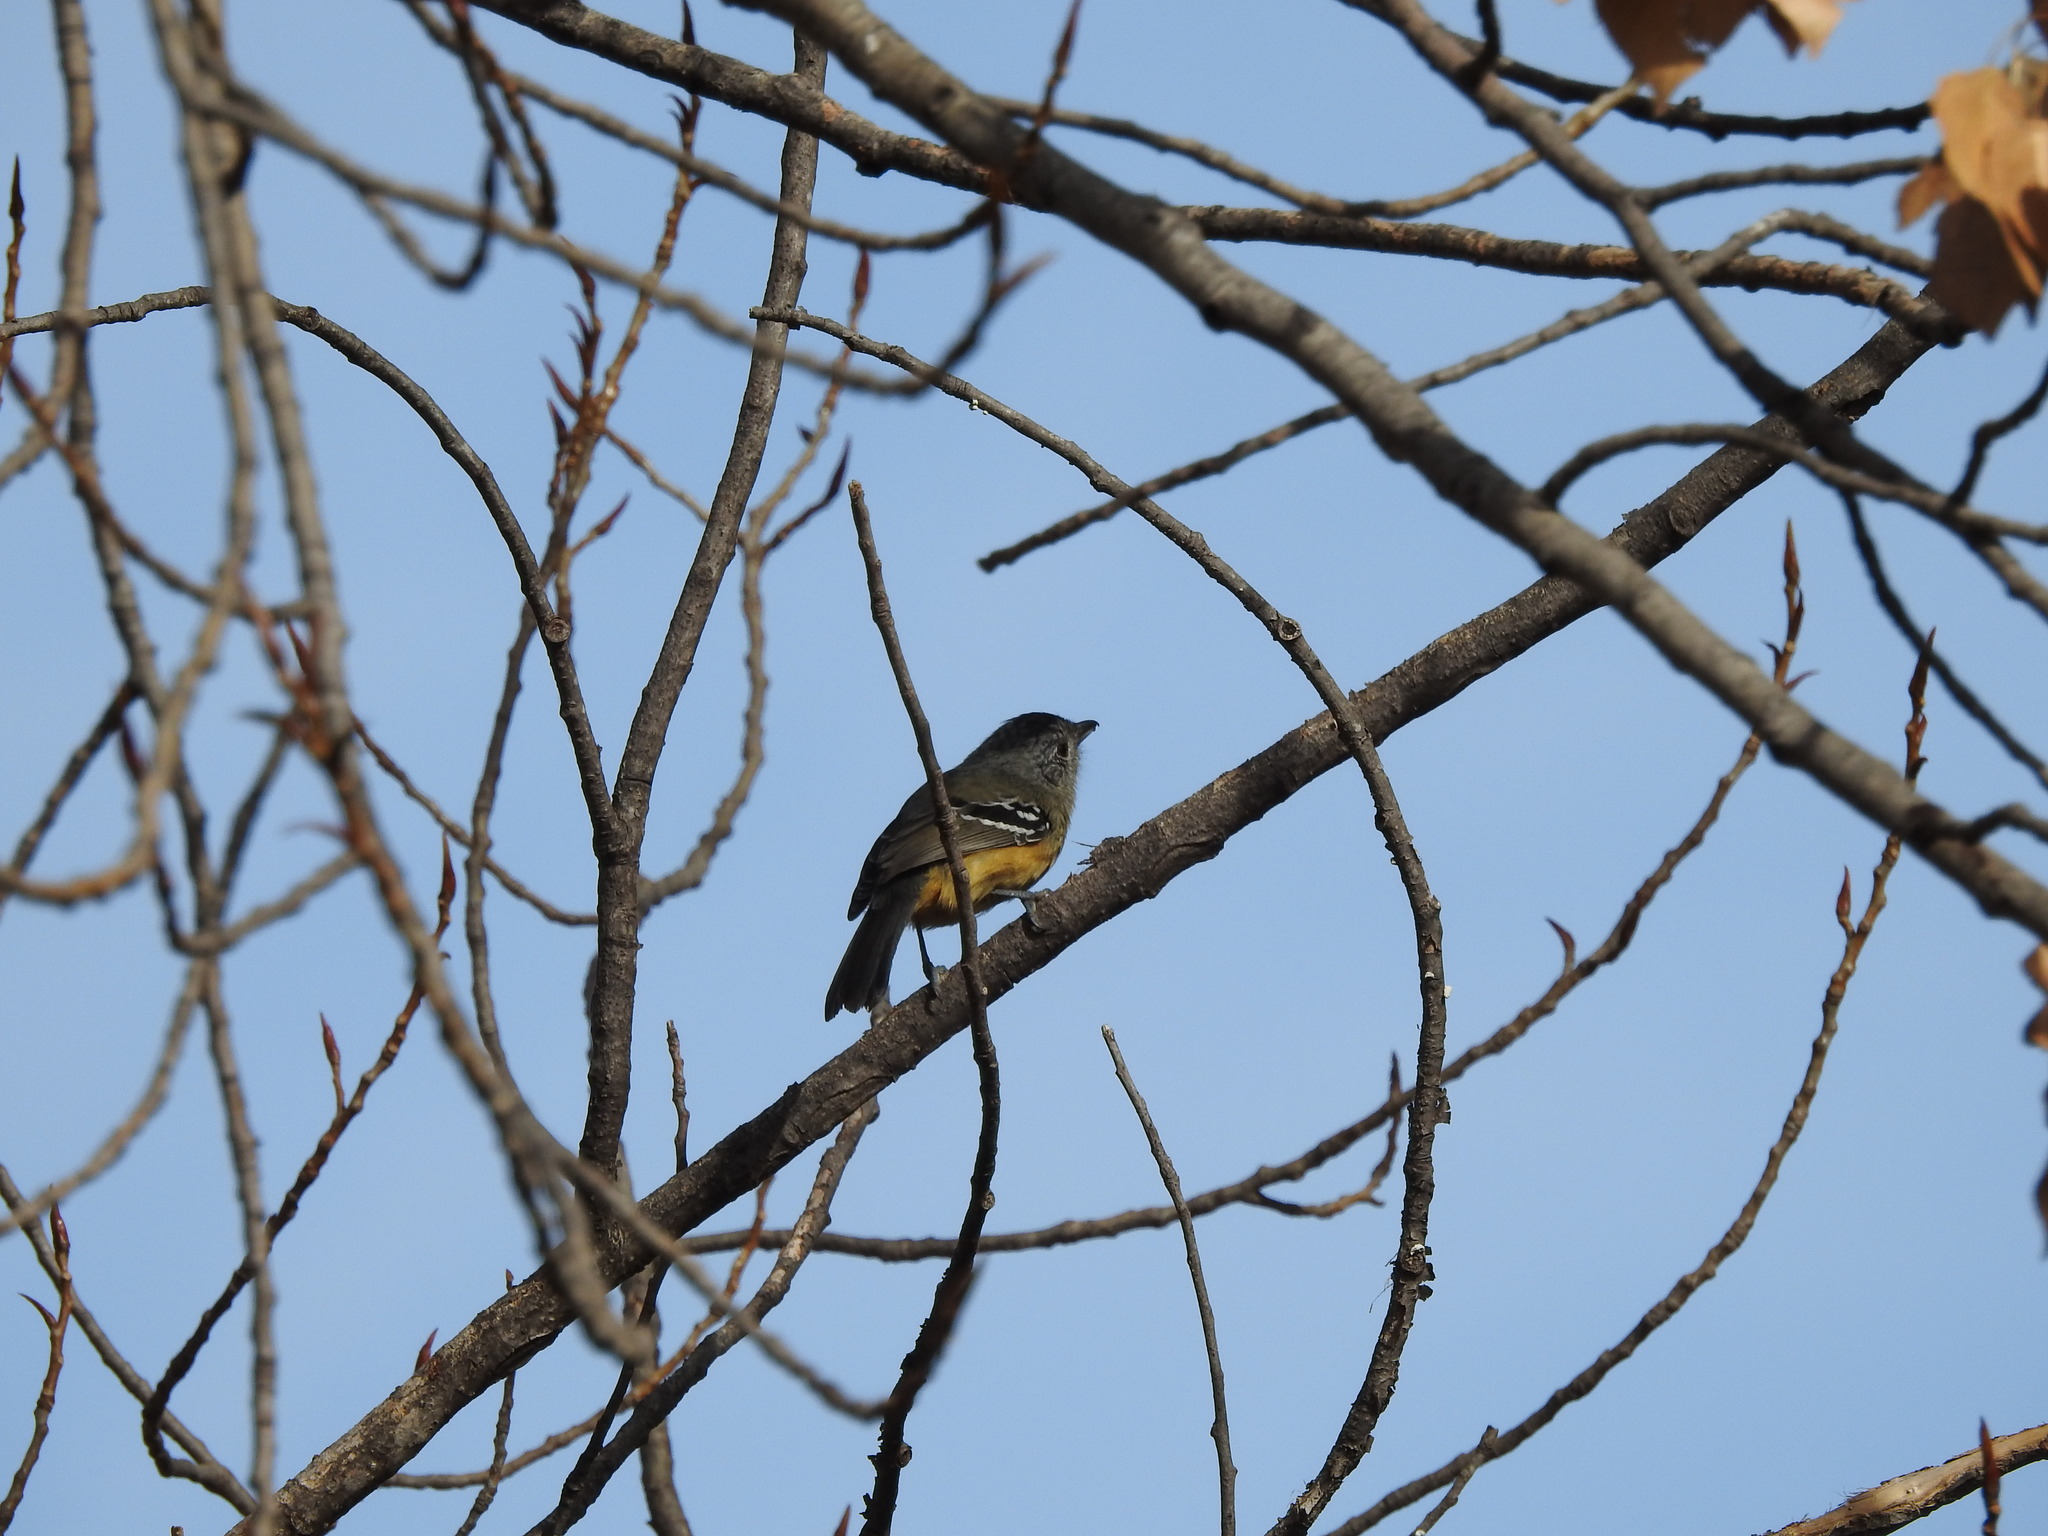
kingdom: Animalia
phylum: Chordata
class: Aves
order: Passeriformes
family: Thamnophilidae
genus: Thamnophilus
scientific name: Thamnophilus caerulescens
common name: Variable antshrike
